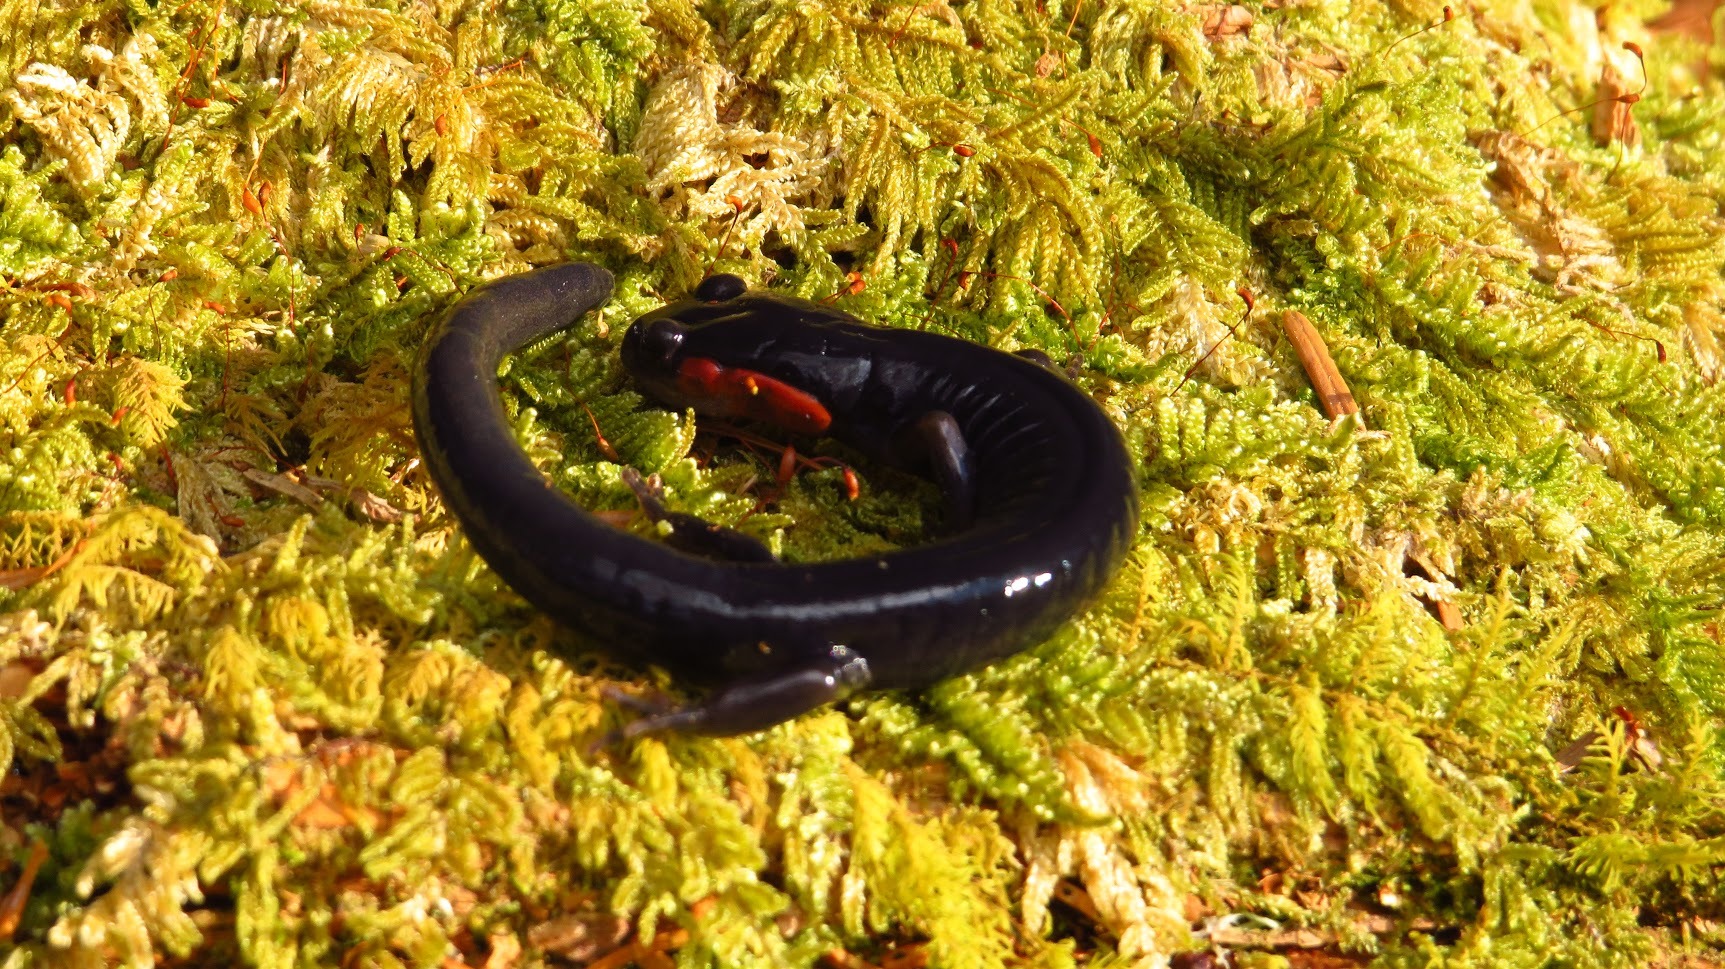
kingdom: Animalia
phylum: Chordata
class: Amphibia
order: Caudata
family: Plethodontidae
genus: Plethodon
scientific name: Plethodon jordani
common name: Red-cheeked salamander
